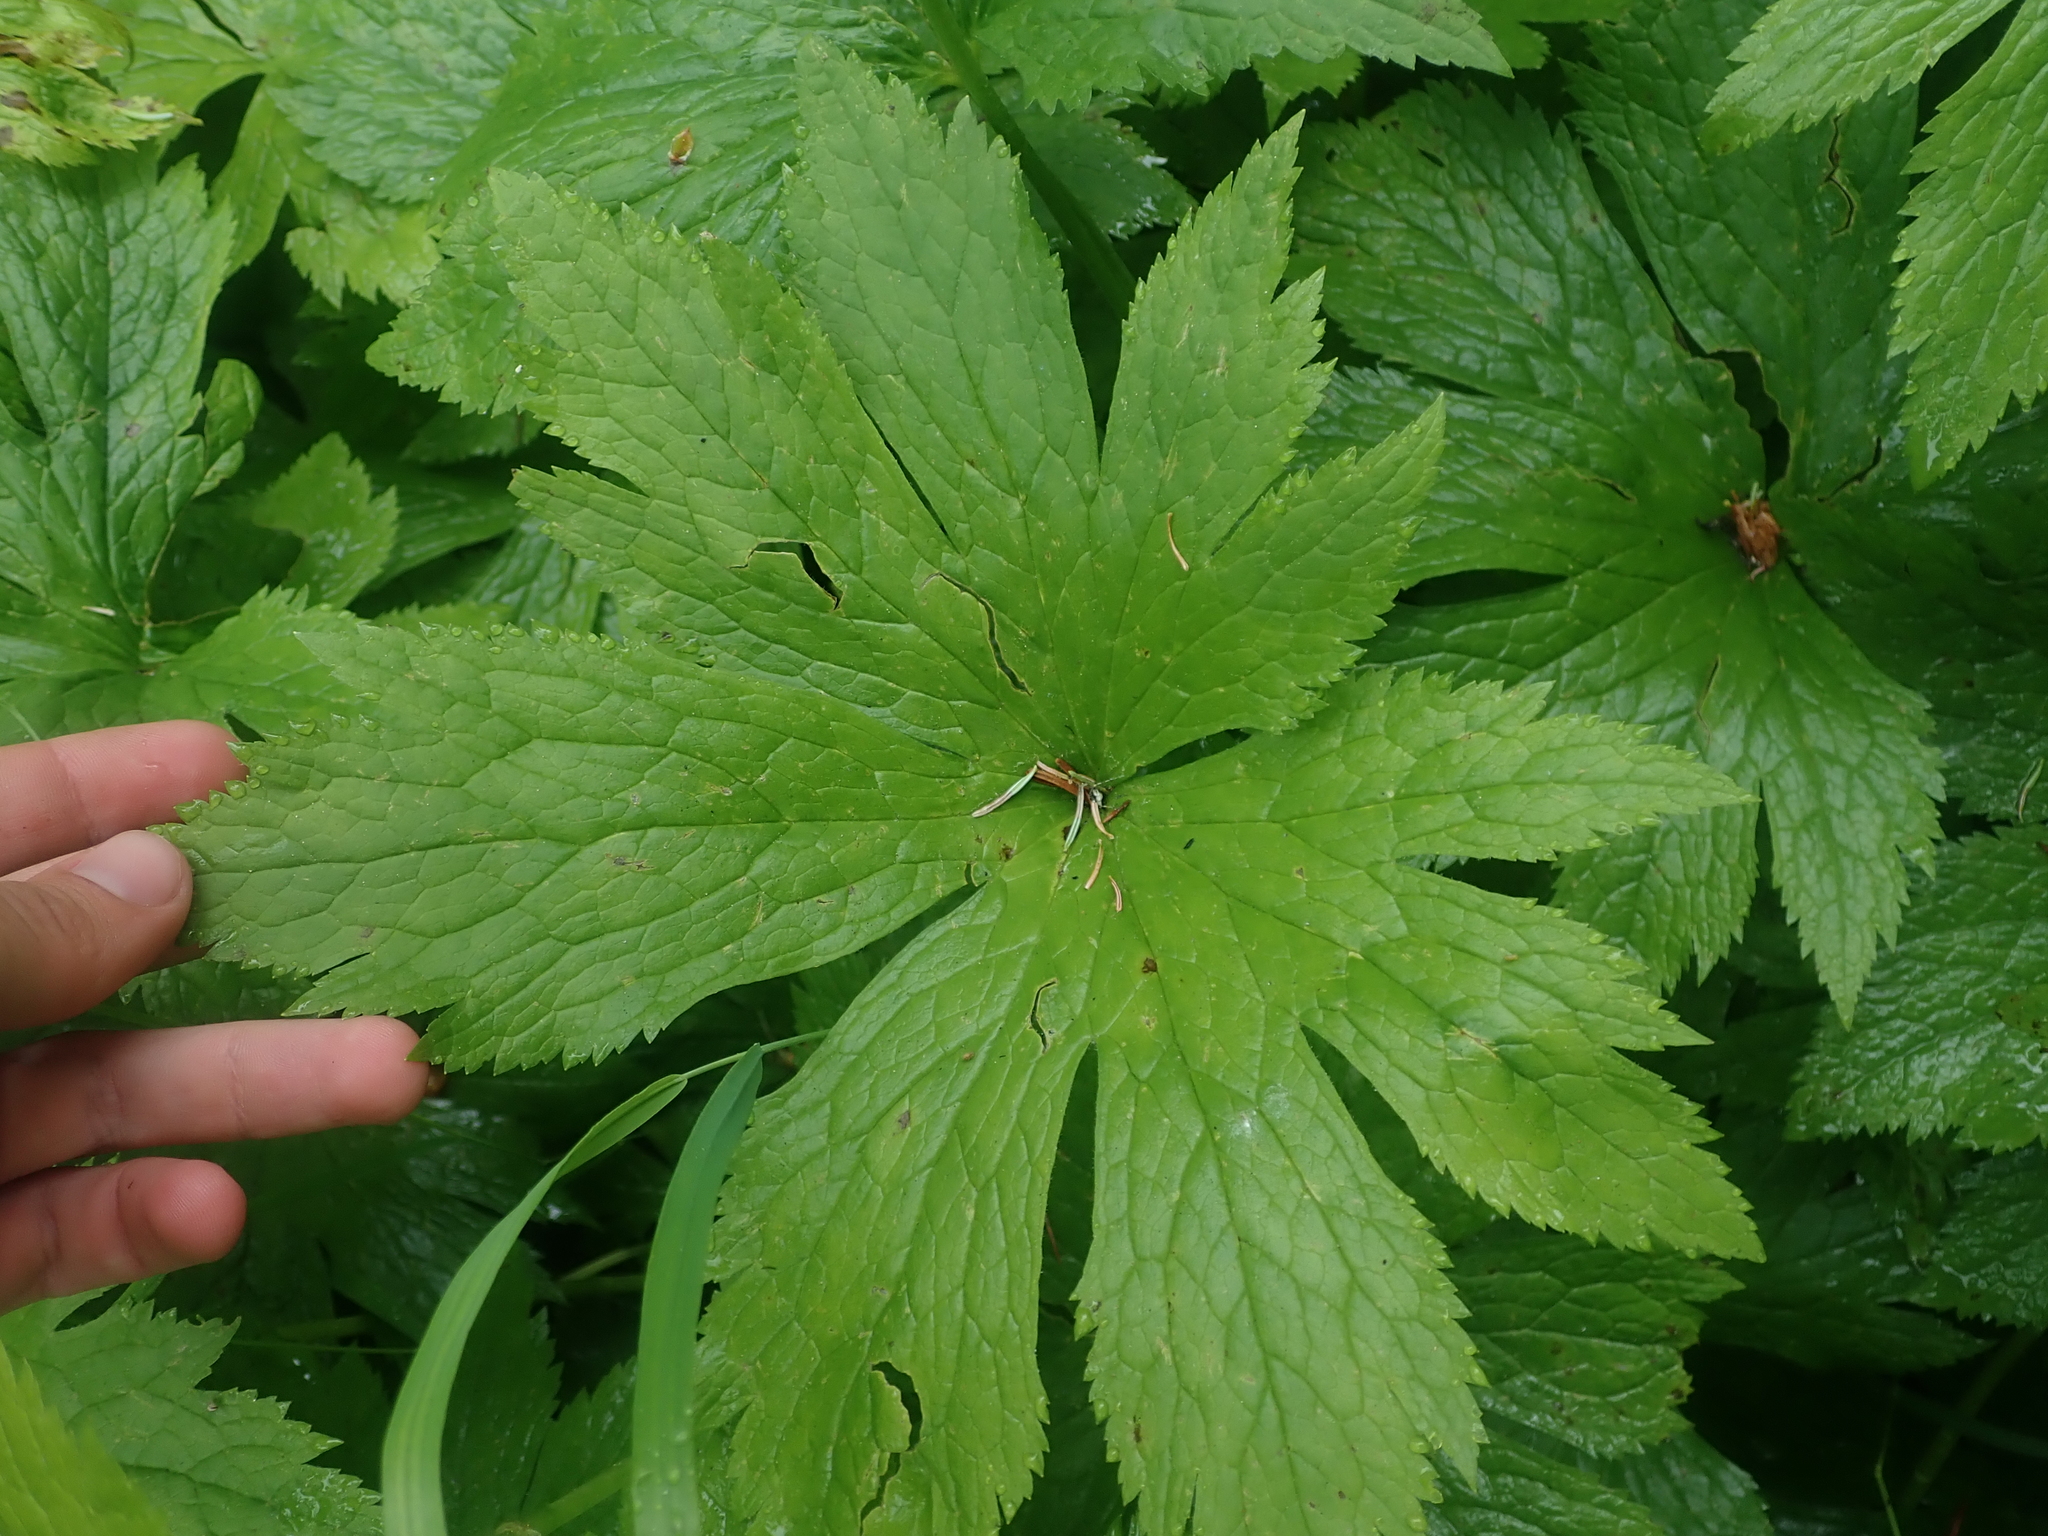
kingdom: Plantae
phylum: Tracheophyta
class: Magnoliopsida
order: Ranunculales
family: Ranunculaceae
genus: Trautvetteria
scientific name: Trautvetteria carolinensis
